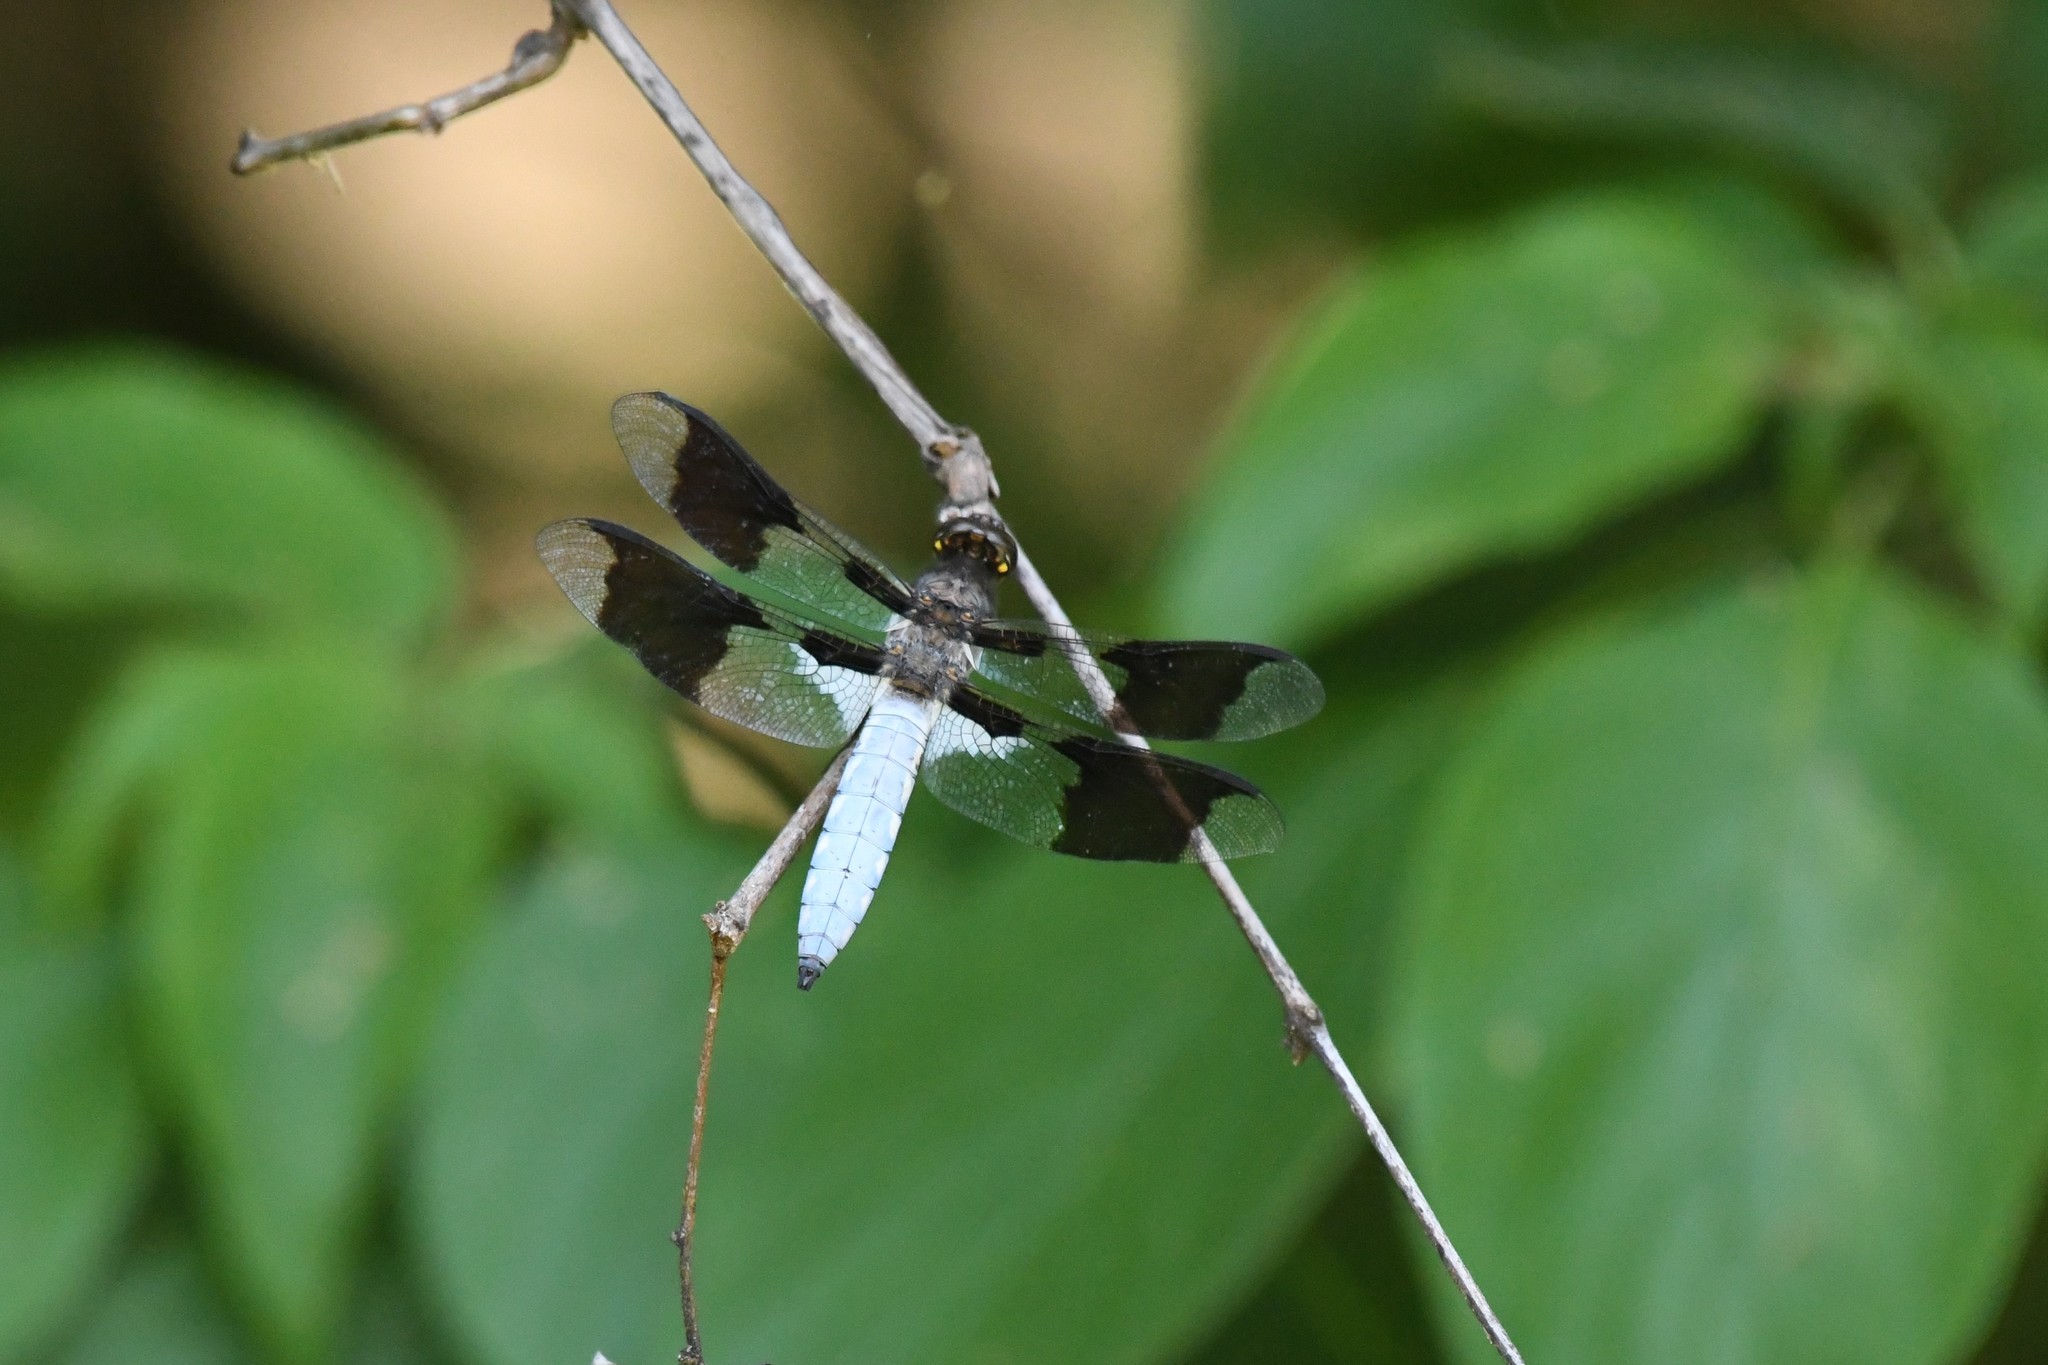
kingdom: Animalia
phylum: Arthropoda
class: Insecta
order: Odonata
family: Libellulidae
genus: Plathemis
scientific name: Plathemis lydia
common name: Common whitetail
